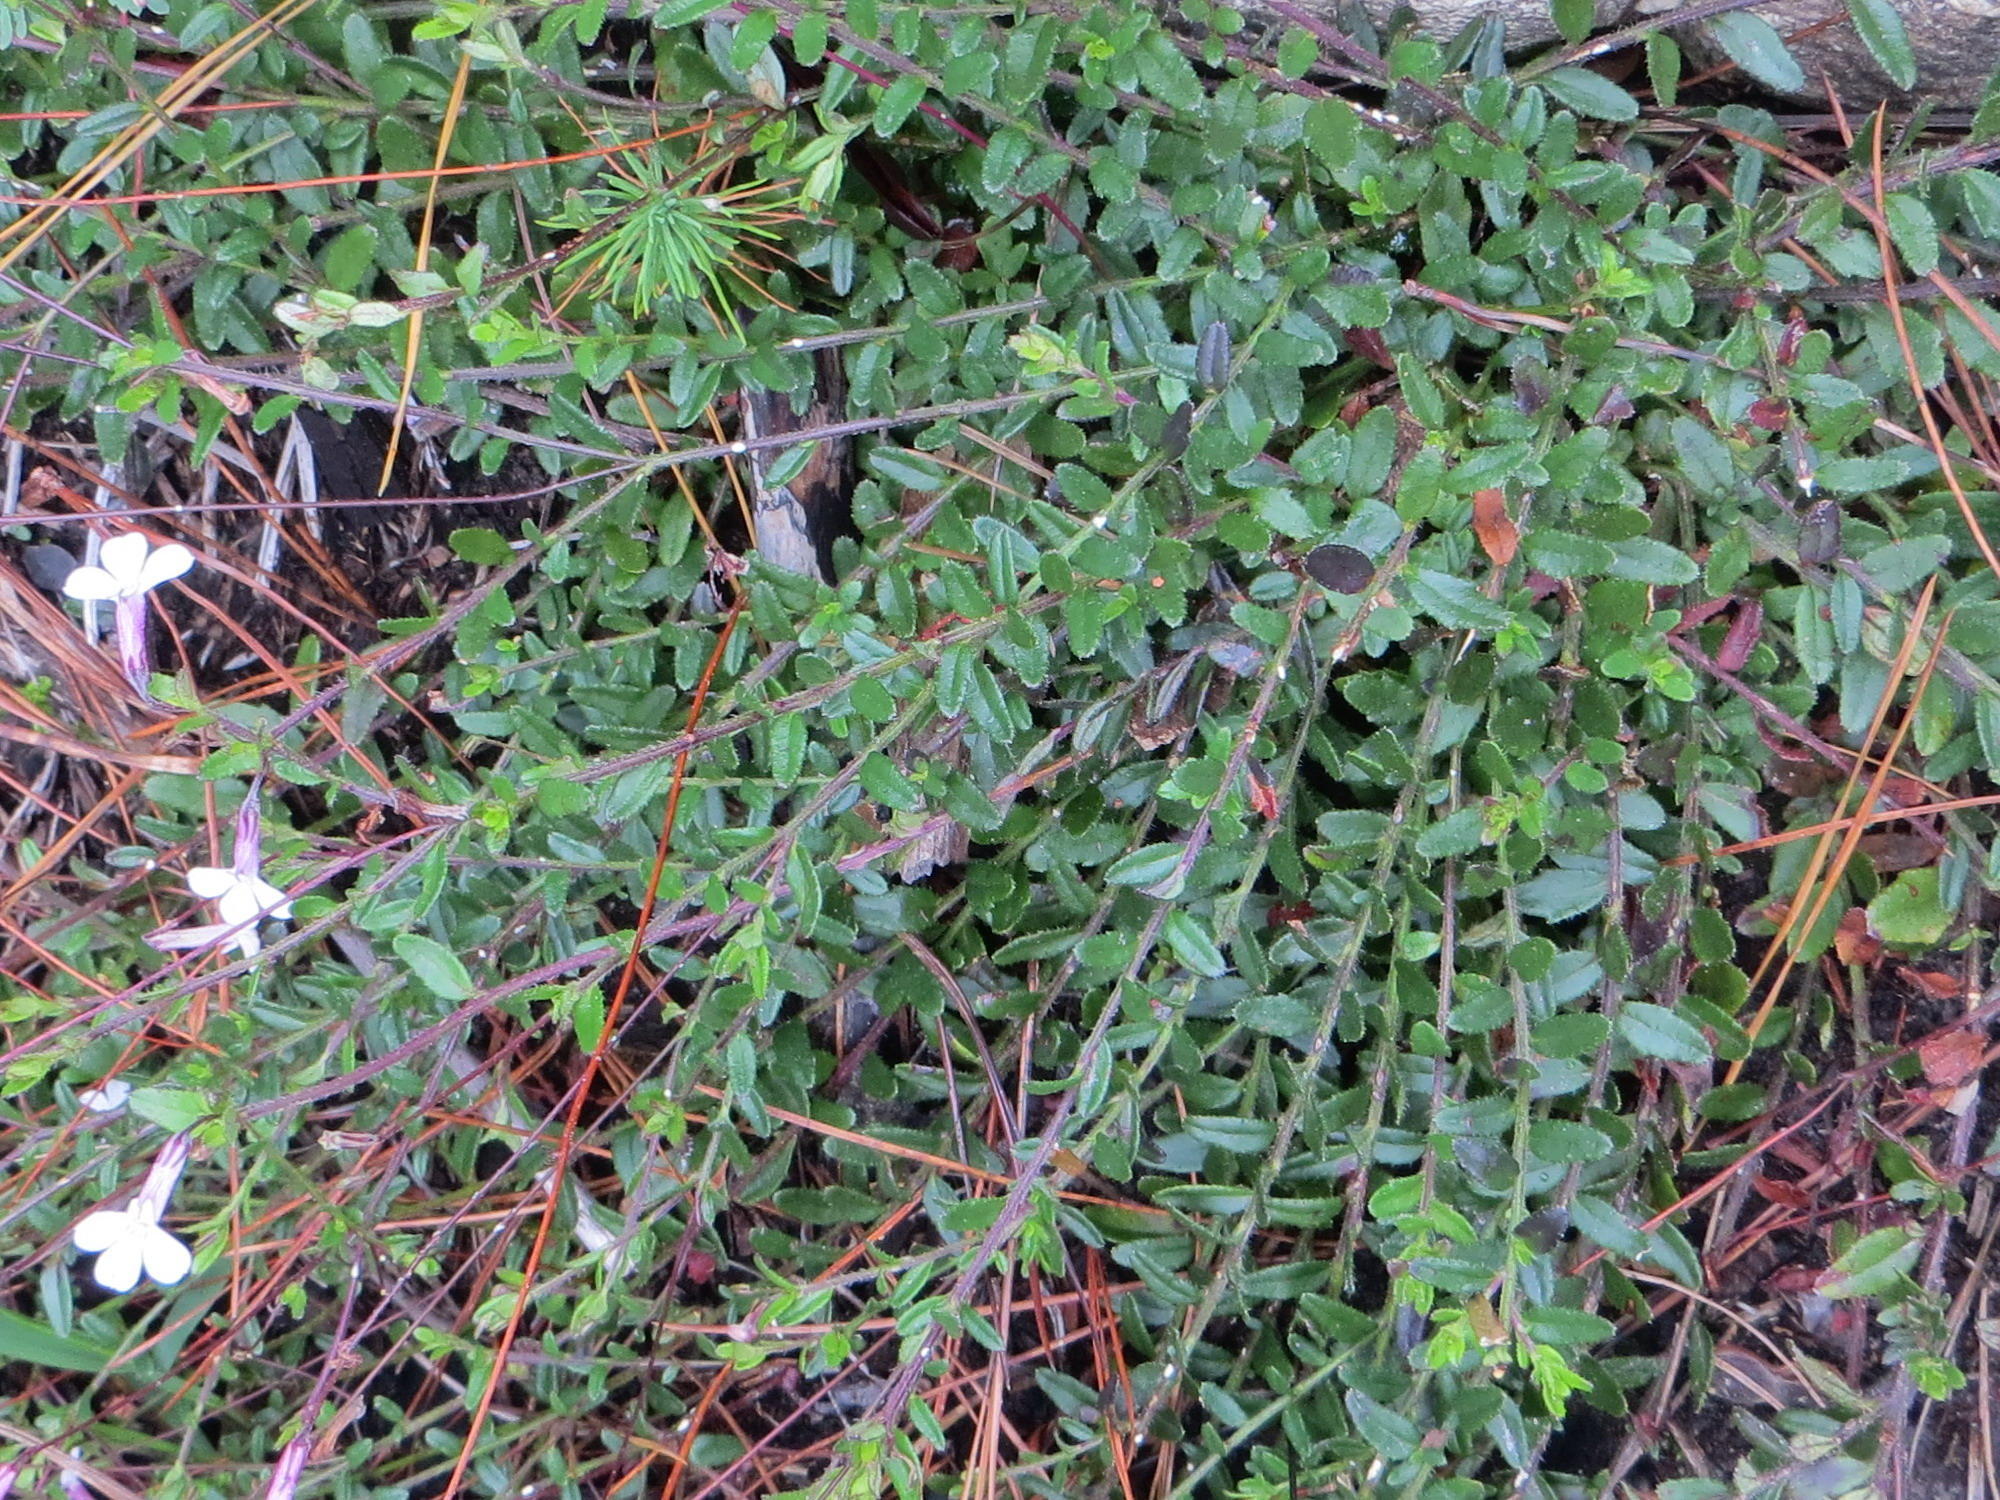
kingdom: Plantae
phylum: Tracheophyta
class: Magnoliopsida
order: Asterales
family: Campanulaceae
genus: Lobelia
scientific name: Lobelia neglecta
